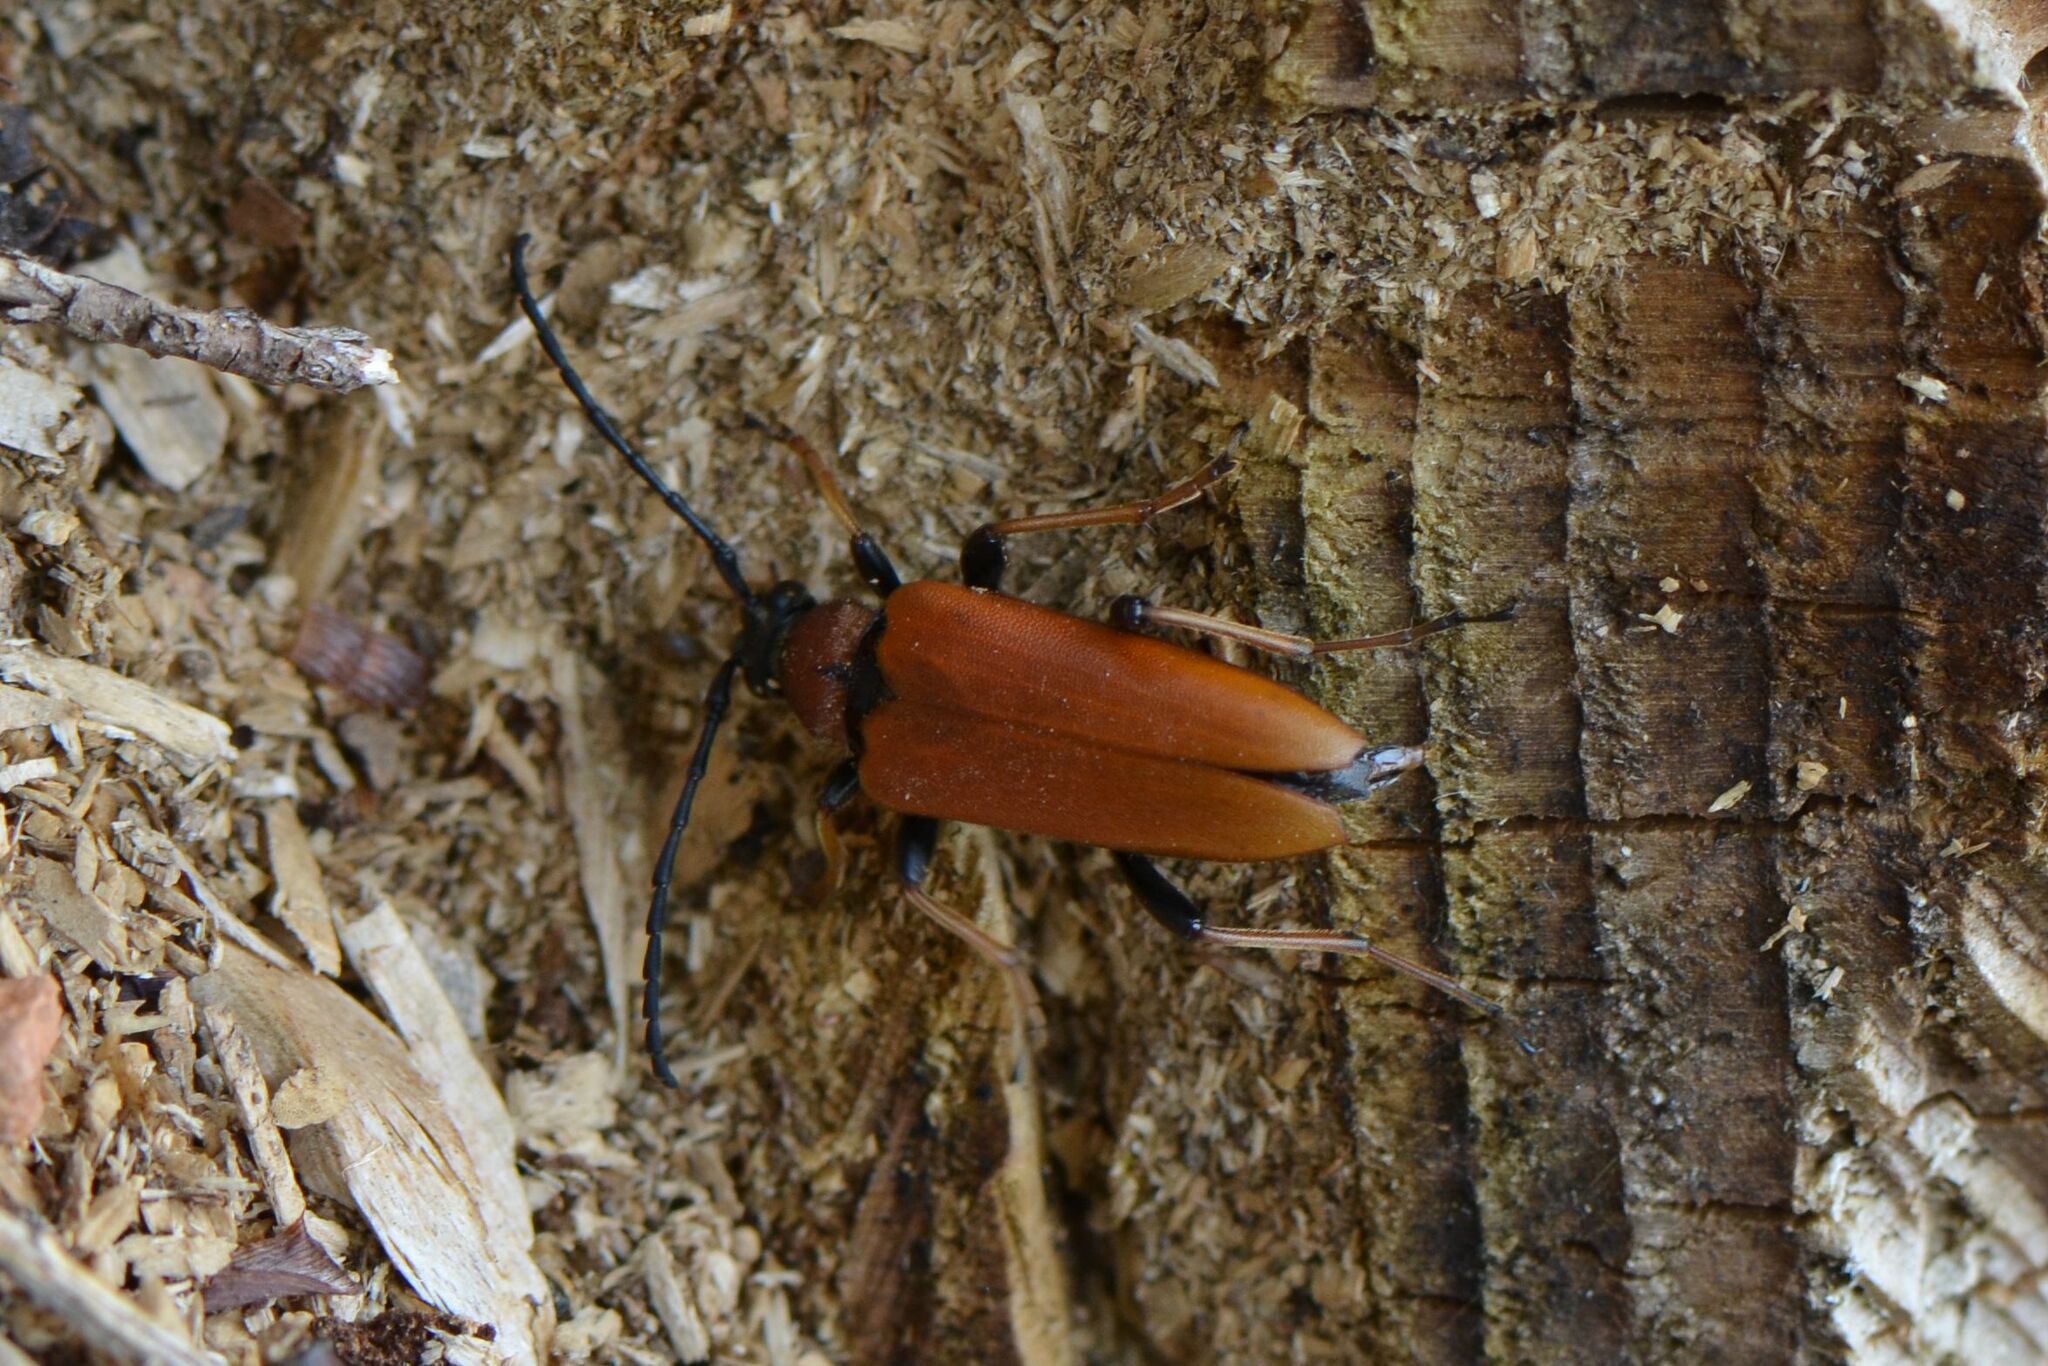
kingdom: Animalia
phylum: Arthropoda
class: Insecta
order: Coleoptera
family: Cerambycidae
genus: Stictoleptura
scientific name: Stictoleptura rubra
